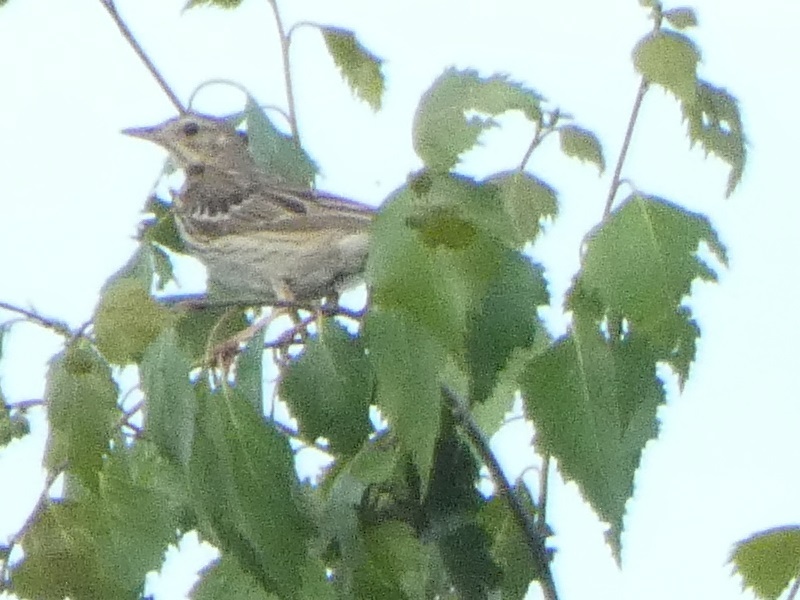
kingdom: Animalia
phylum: Chordata
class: Aves
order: Passeriformes
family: Motacillidae
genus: Anthus
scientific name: Anthus trivialis
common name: Tree pipit
